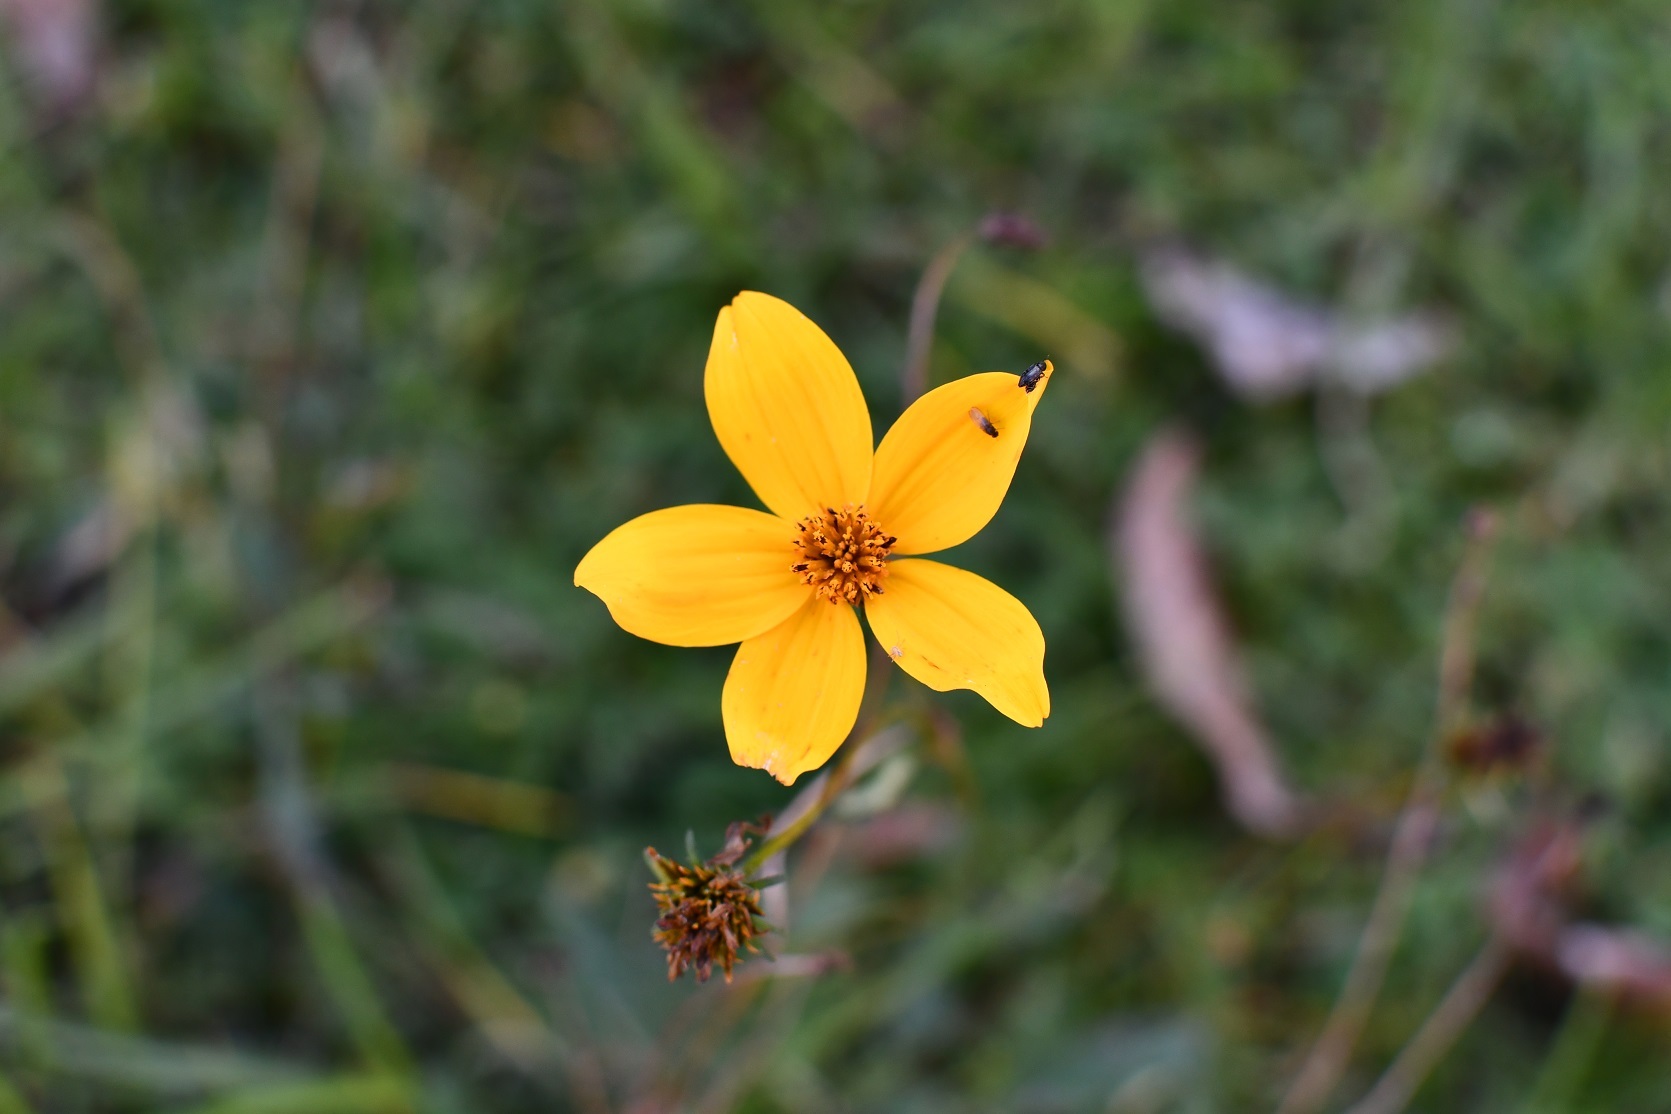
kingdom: Plantae
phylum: Tracheophyta
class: Magnoliopsida
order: Asterales
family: Asteraceae
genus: Bidens
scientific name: Bidens aurea
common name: Arizona beggar-ticks
